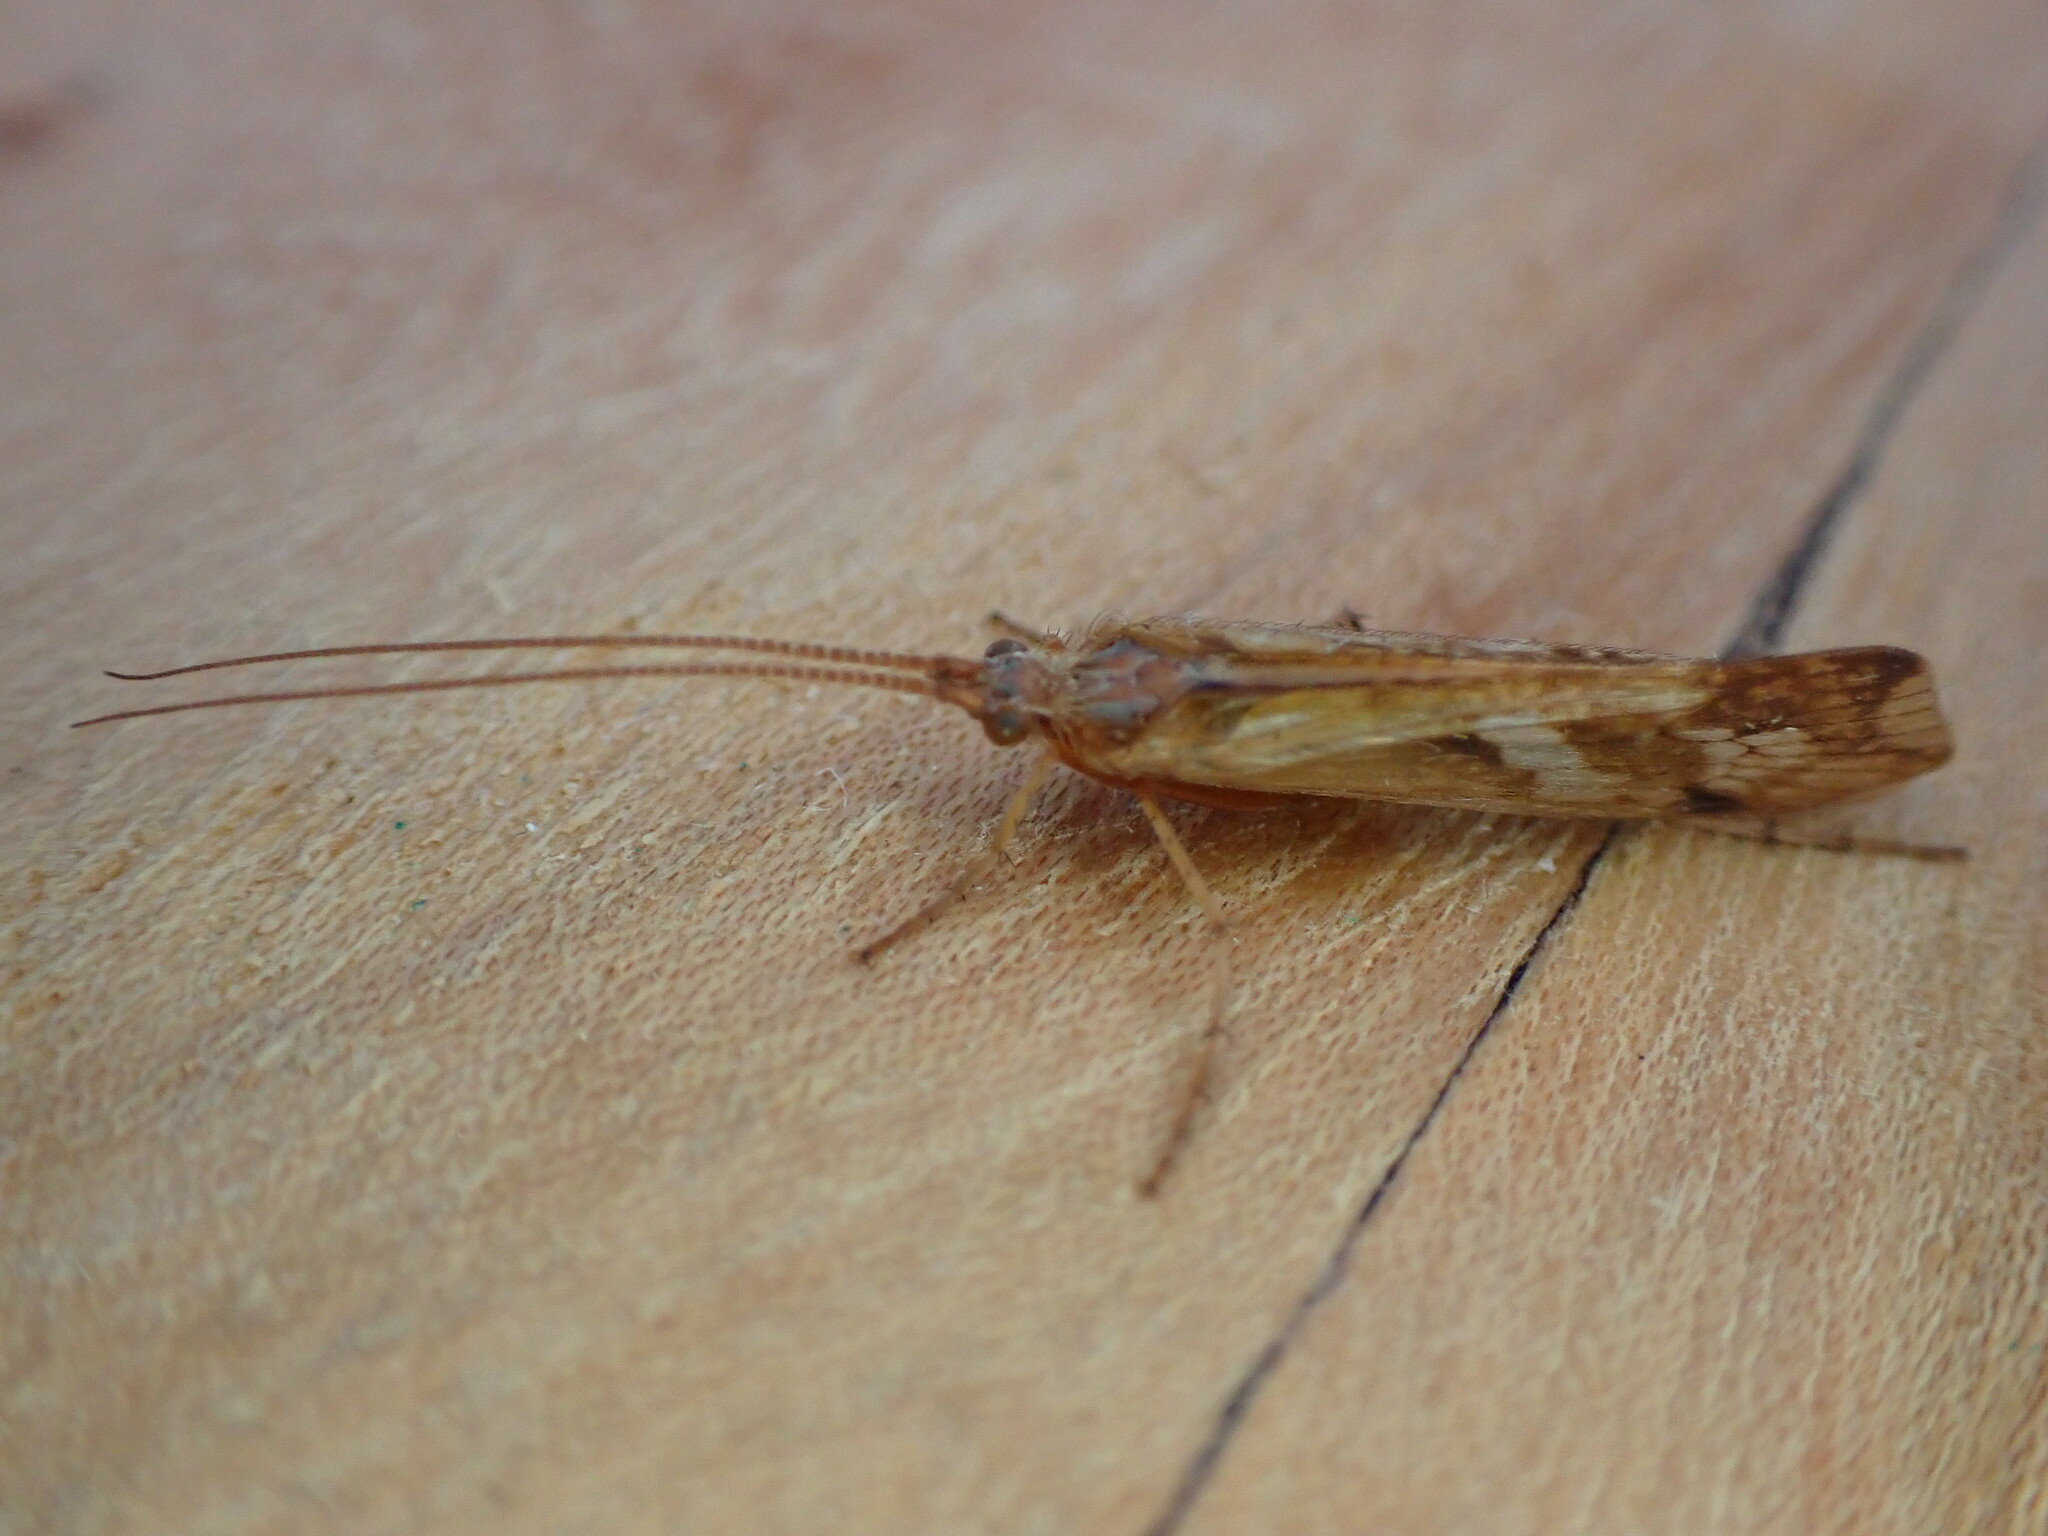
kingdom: Animalia
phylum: Arthropoda
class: Insecta
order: Trichoptera
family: Limnephilidae
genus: Limnephilus
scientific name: Limnephilus lunatus
